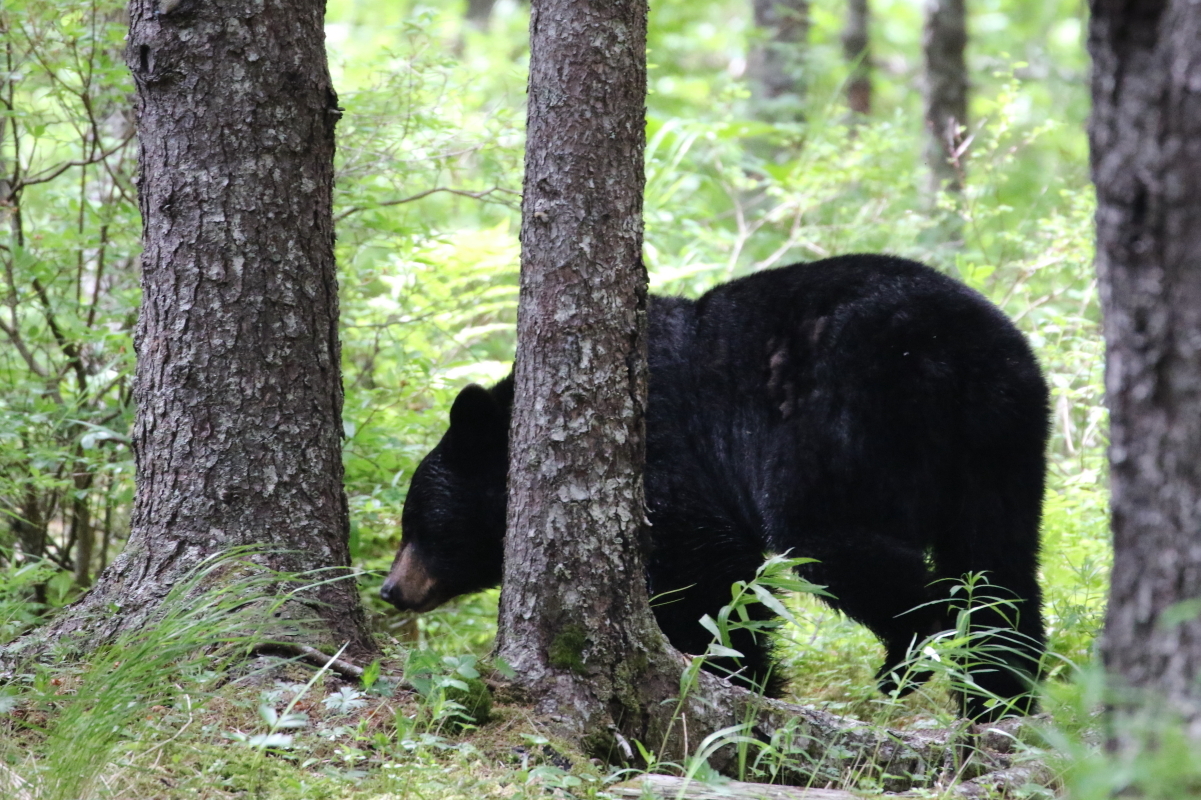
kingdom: Animalia
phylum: Chordata
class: Mammalia
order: Carnivora
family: Ursidae
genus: Ursus
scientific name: Ursus americanus
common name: American black bear
